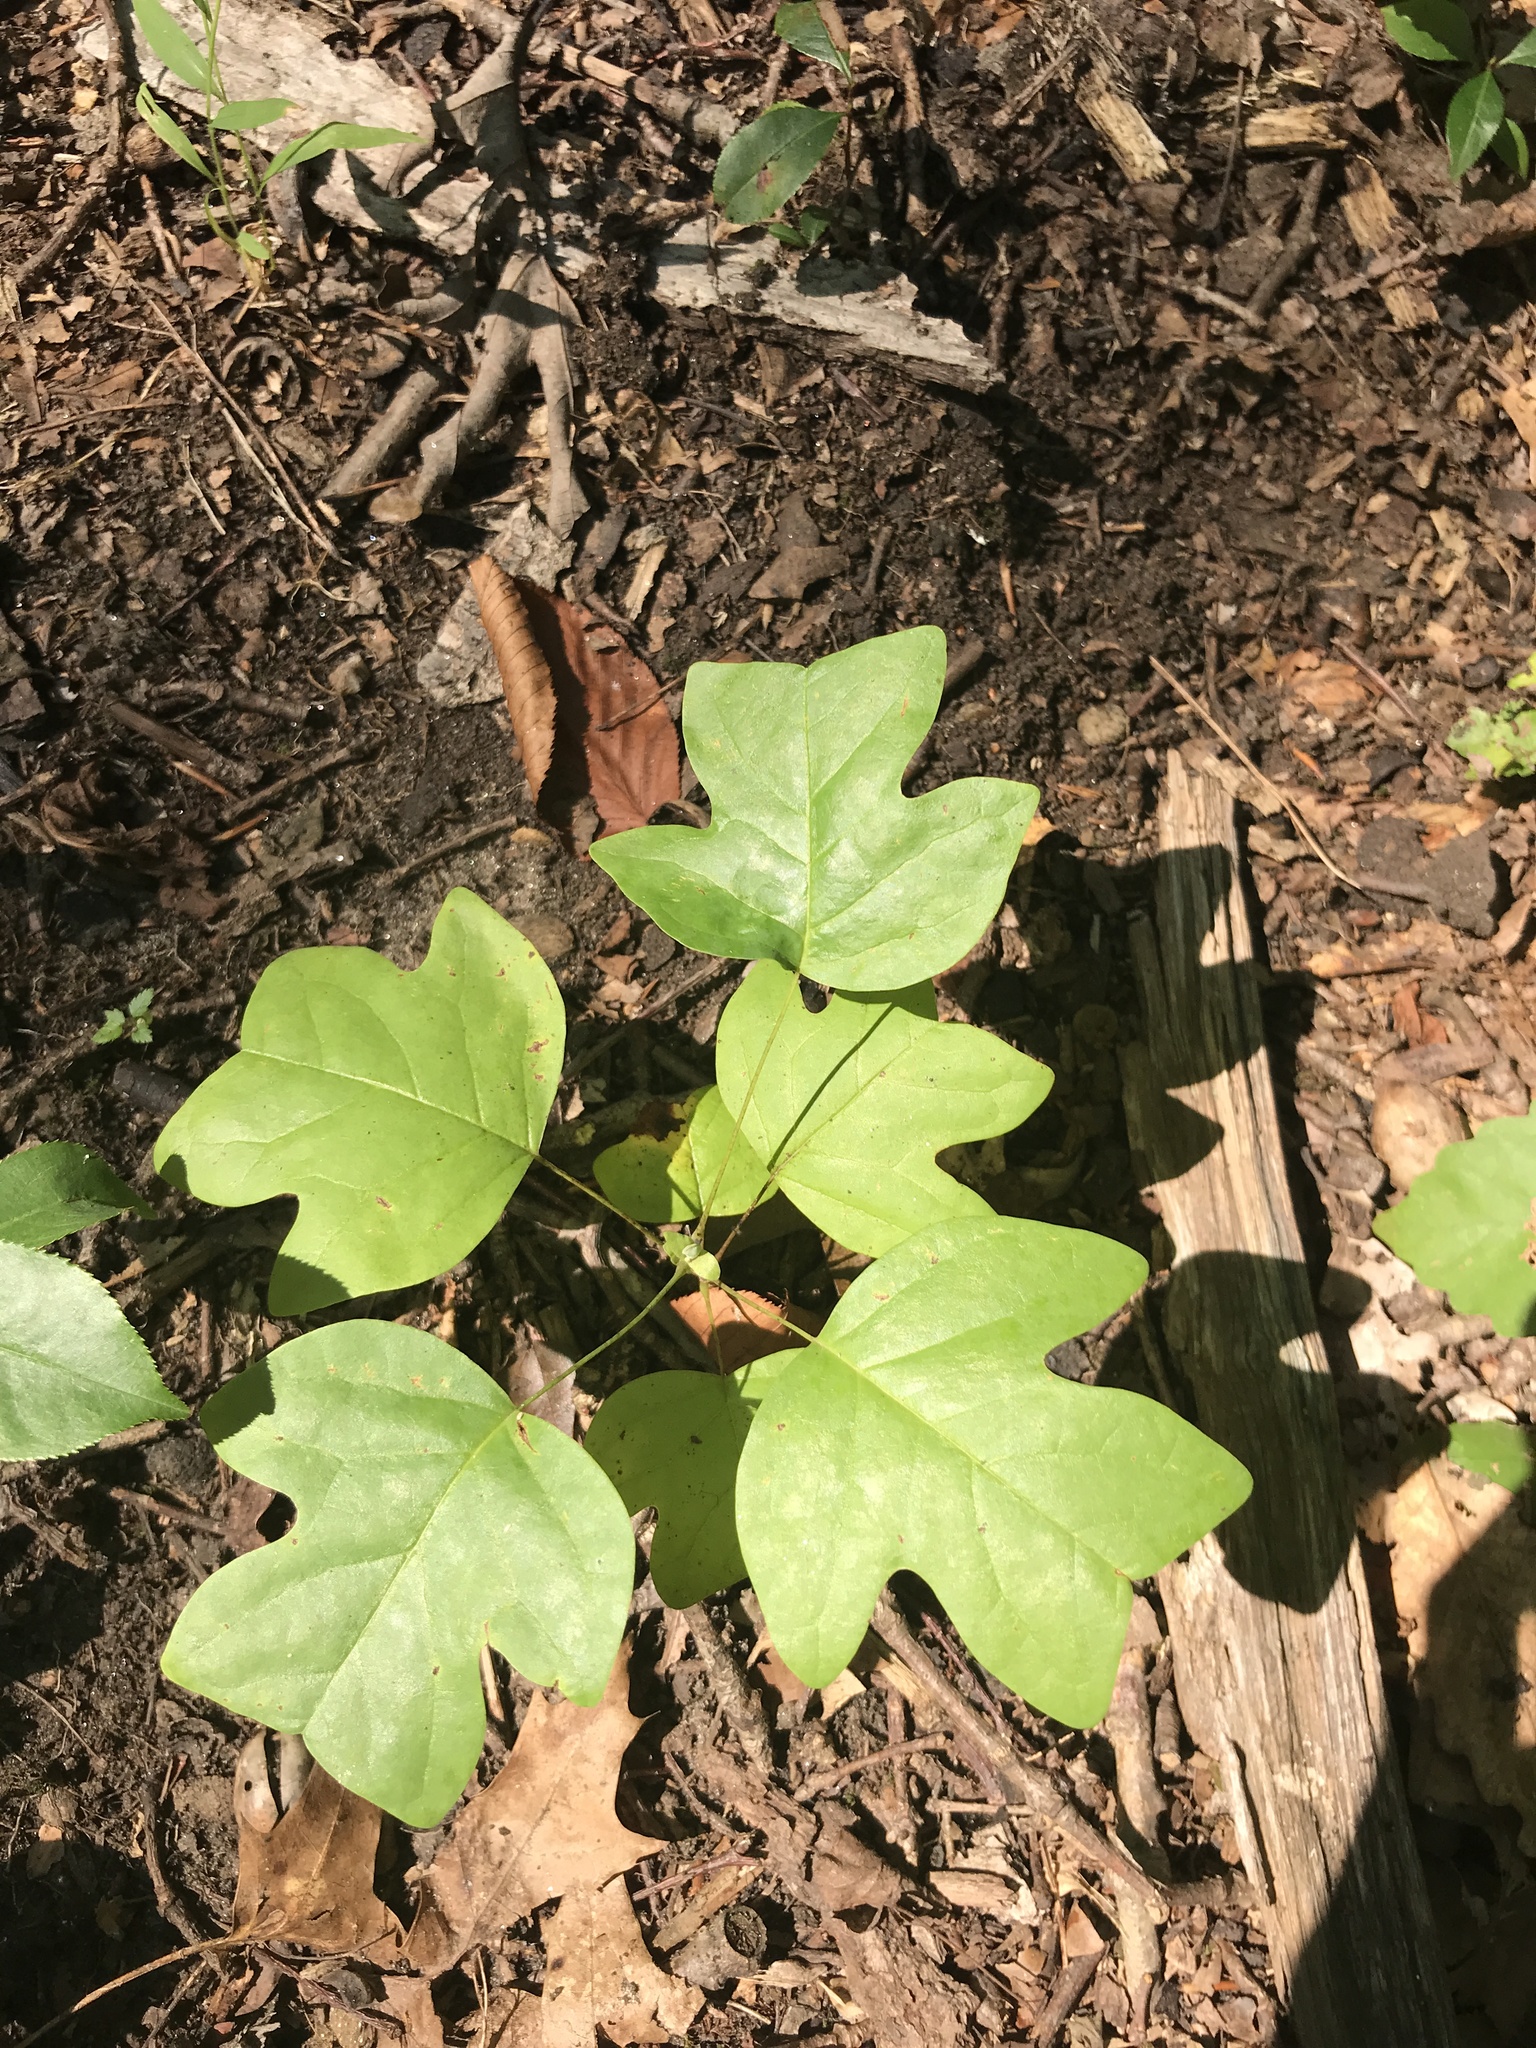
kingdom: Plantae
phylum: Tracheophyta
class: Magnoliopsida
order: Magnoliales
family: Magnoliaceae
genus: Liriodendron
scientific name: Liriodendron tulipifera
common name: Tulip tree
